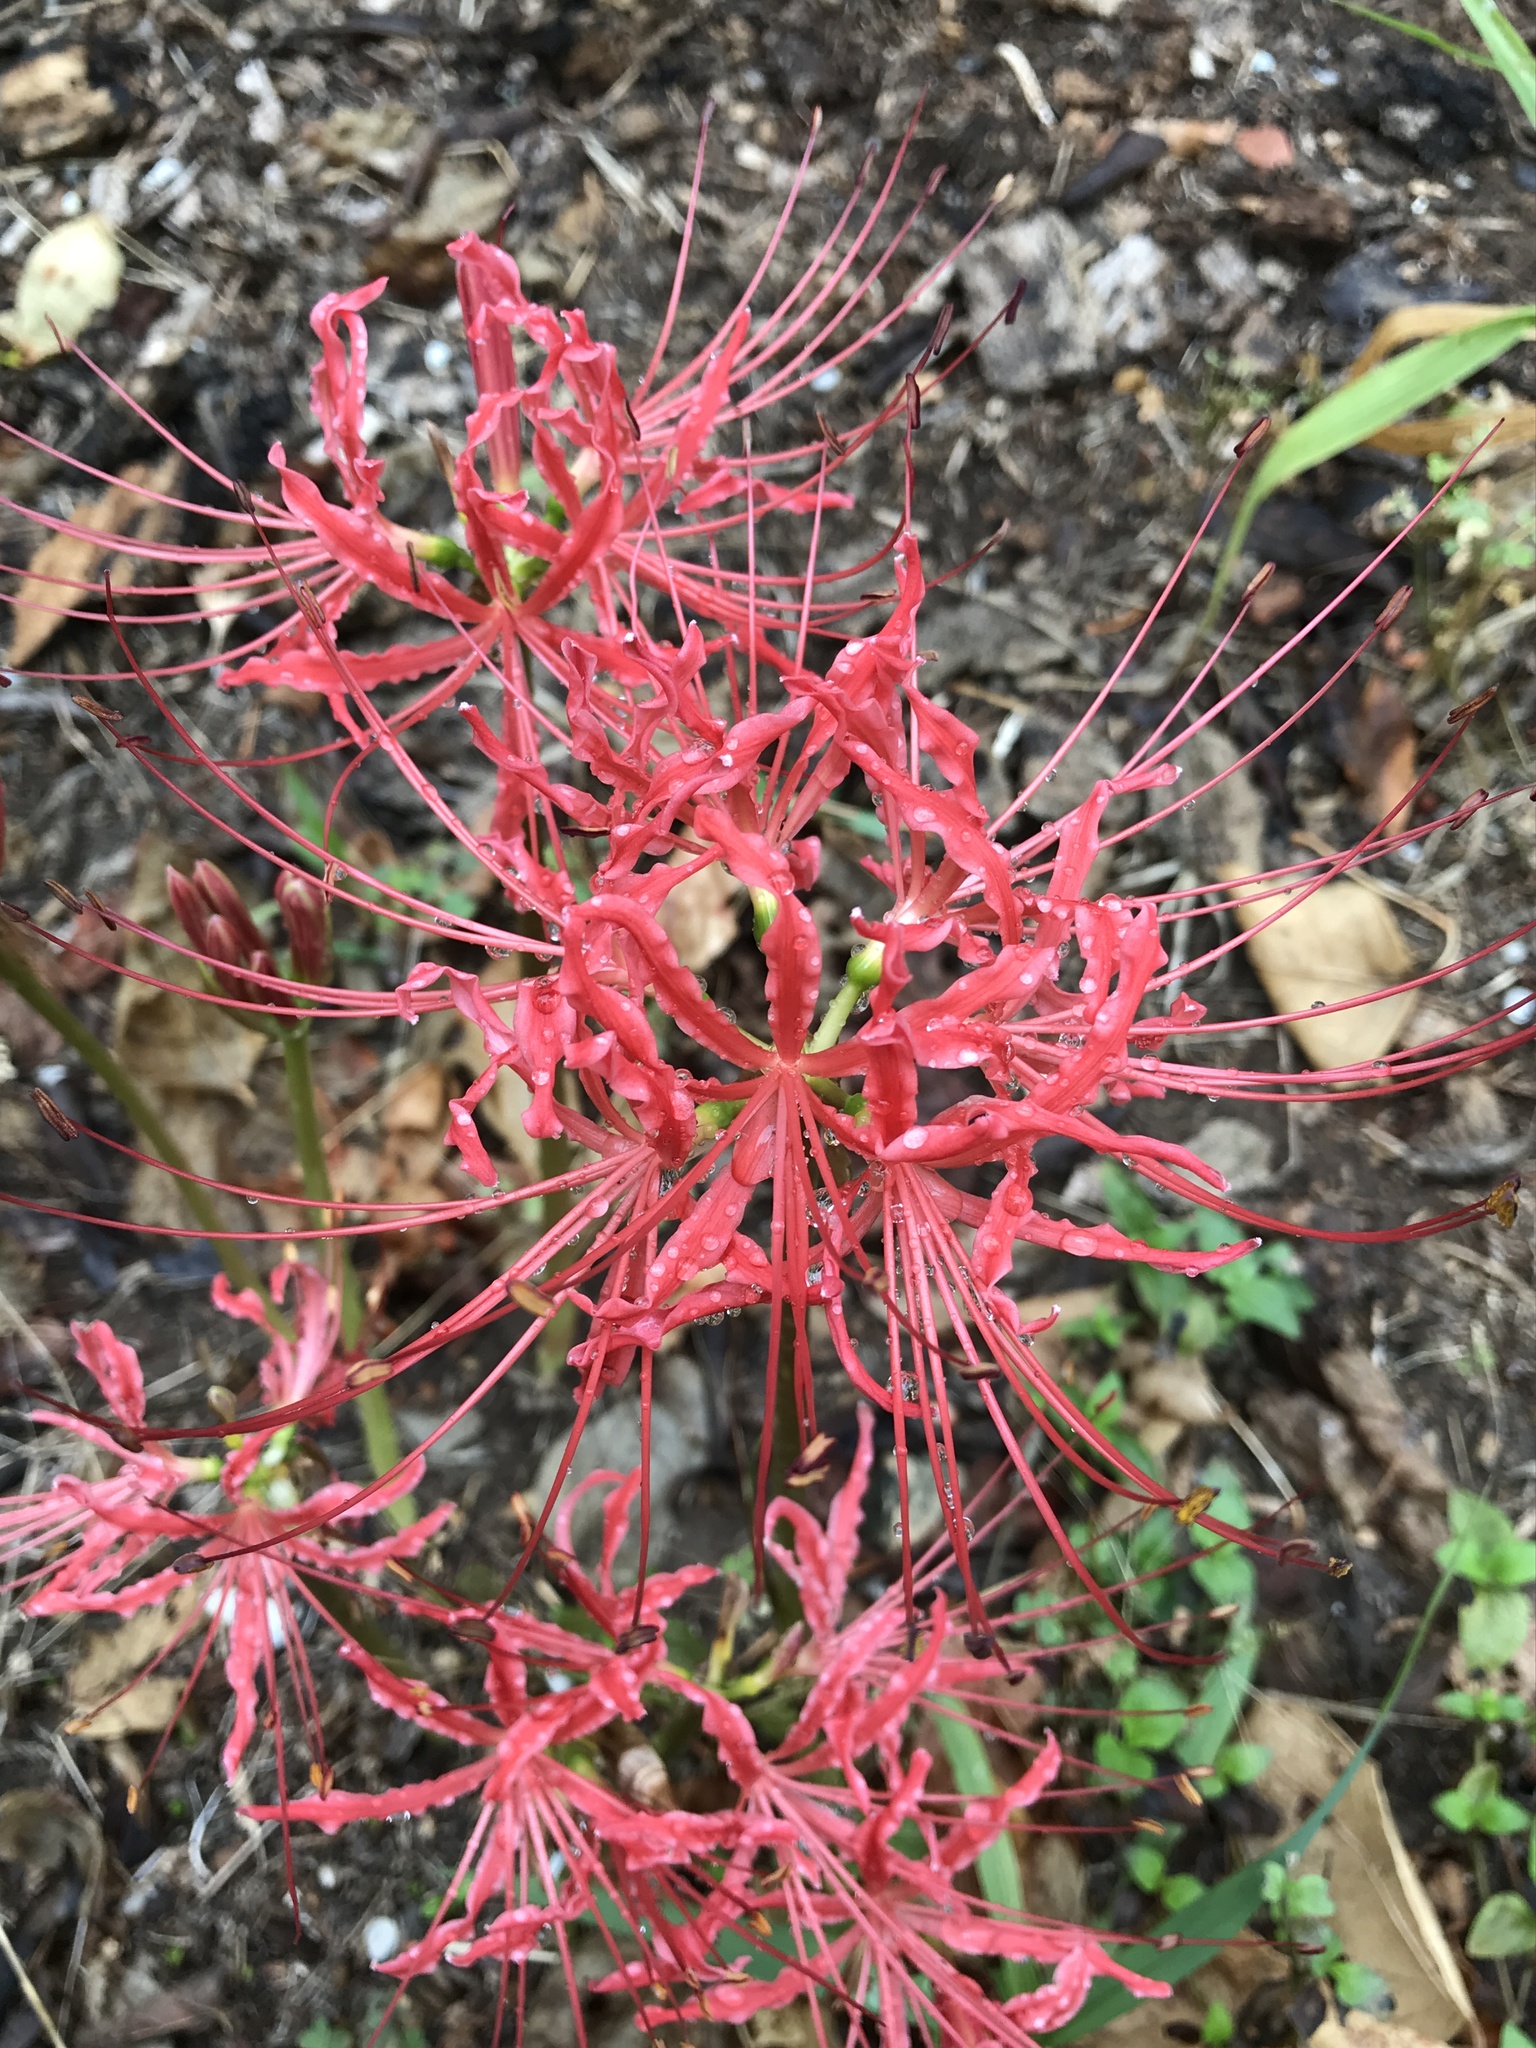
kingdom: Plantae
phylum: Tracheophyta
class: Liliopsida
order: Asparagales
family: Amaryllidaceae
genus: Lycoris
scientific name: Lycoris radiata
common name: Red spider lily
